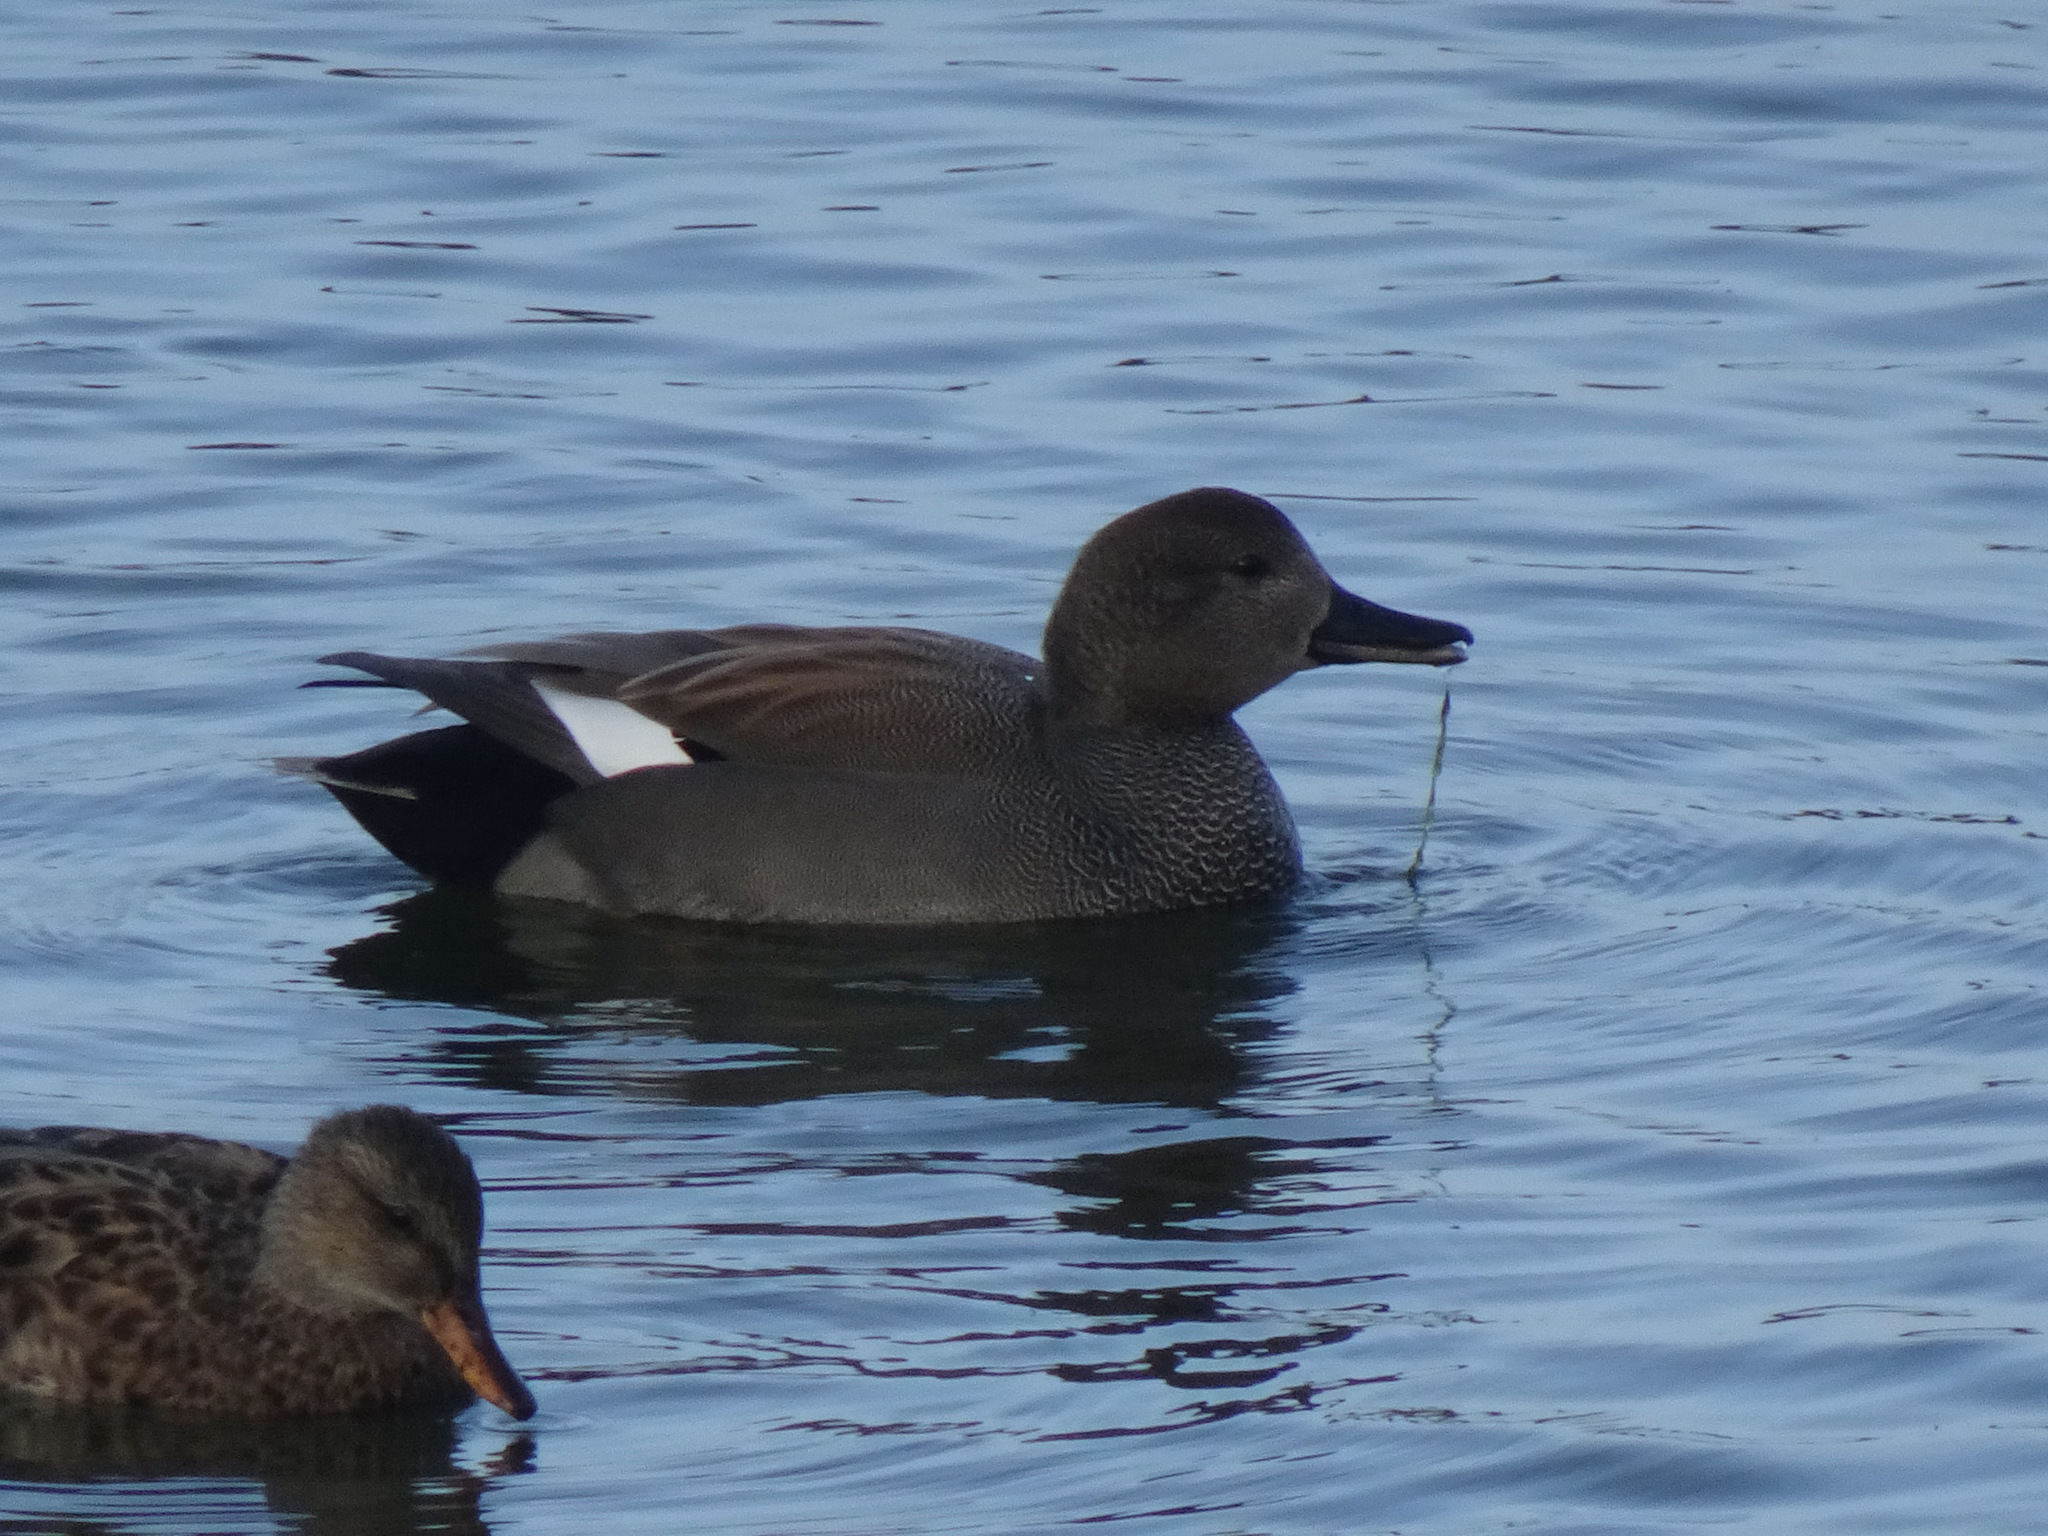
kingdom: Animalia
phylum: Chordata
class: Aves
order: Anseriformes
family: Anatidae
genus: Mareca
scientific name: Mareca strepera
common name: Gadwall
